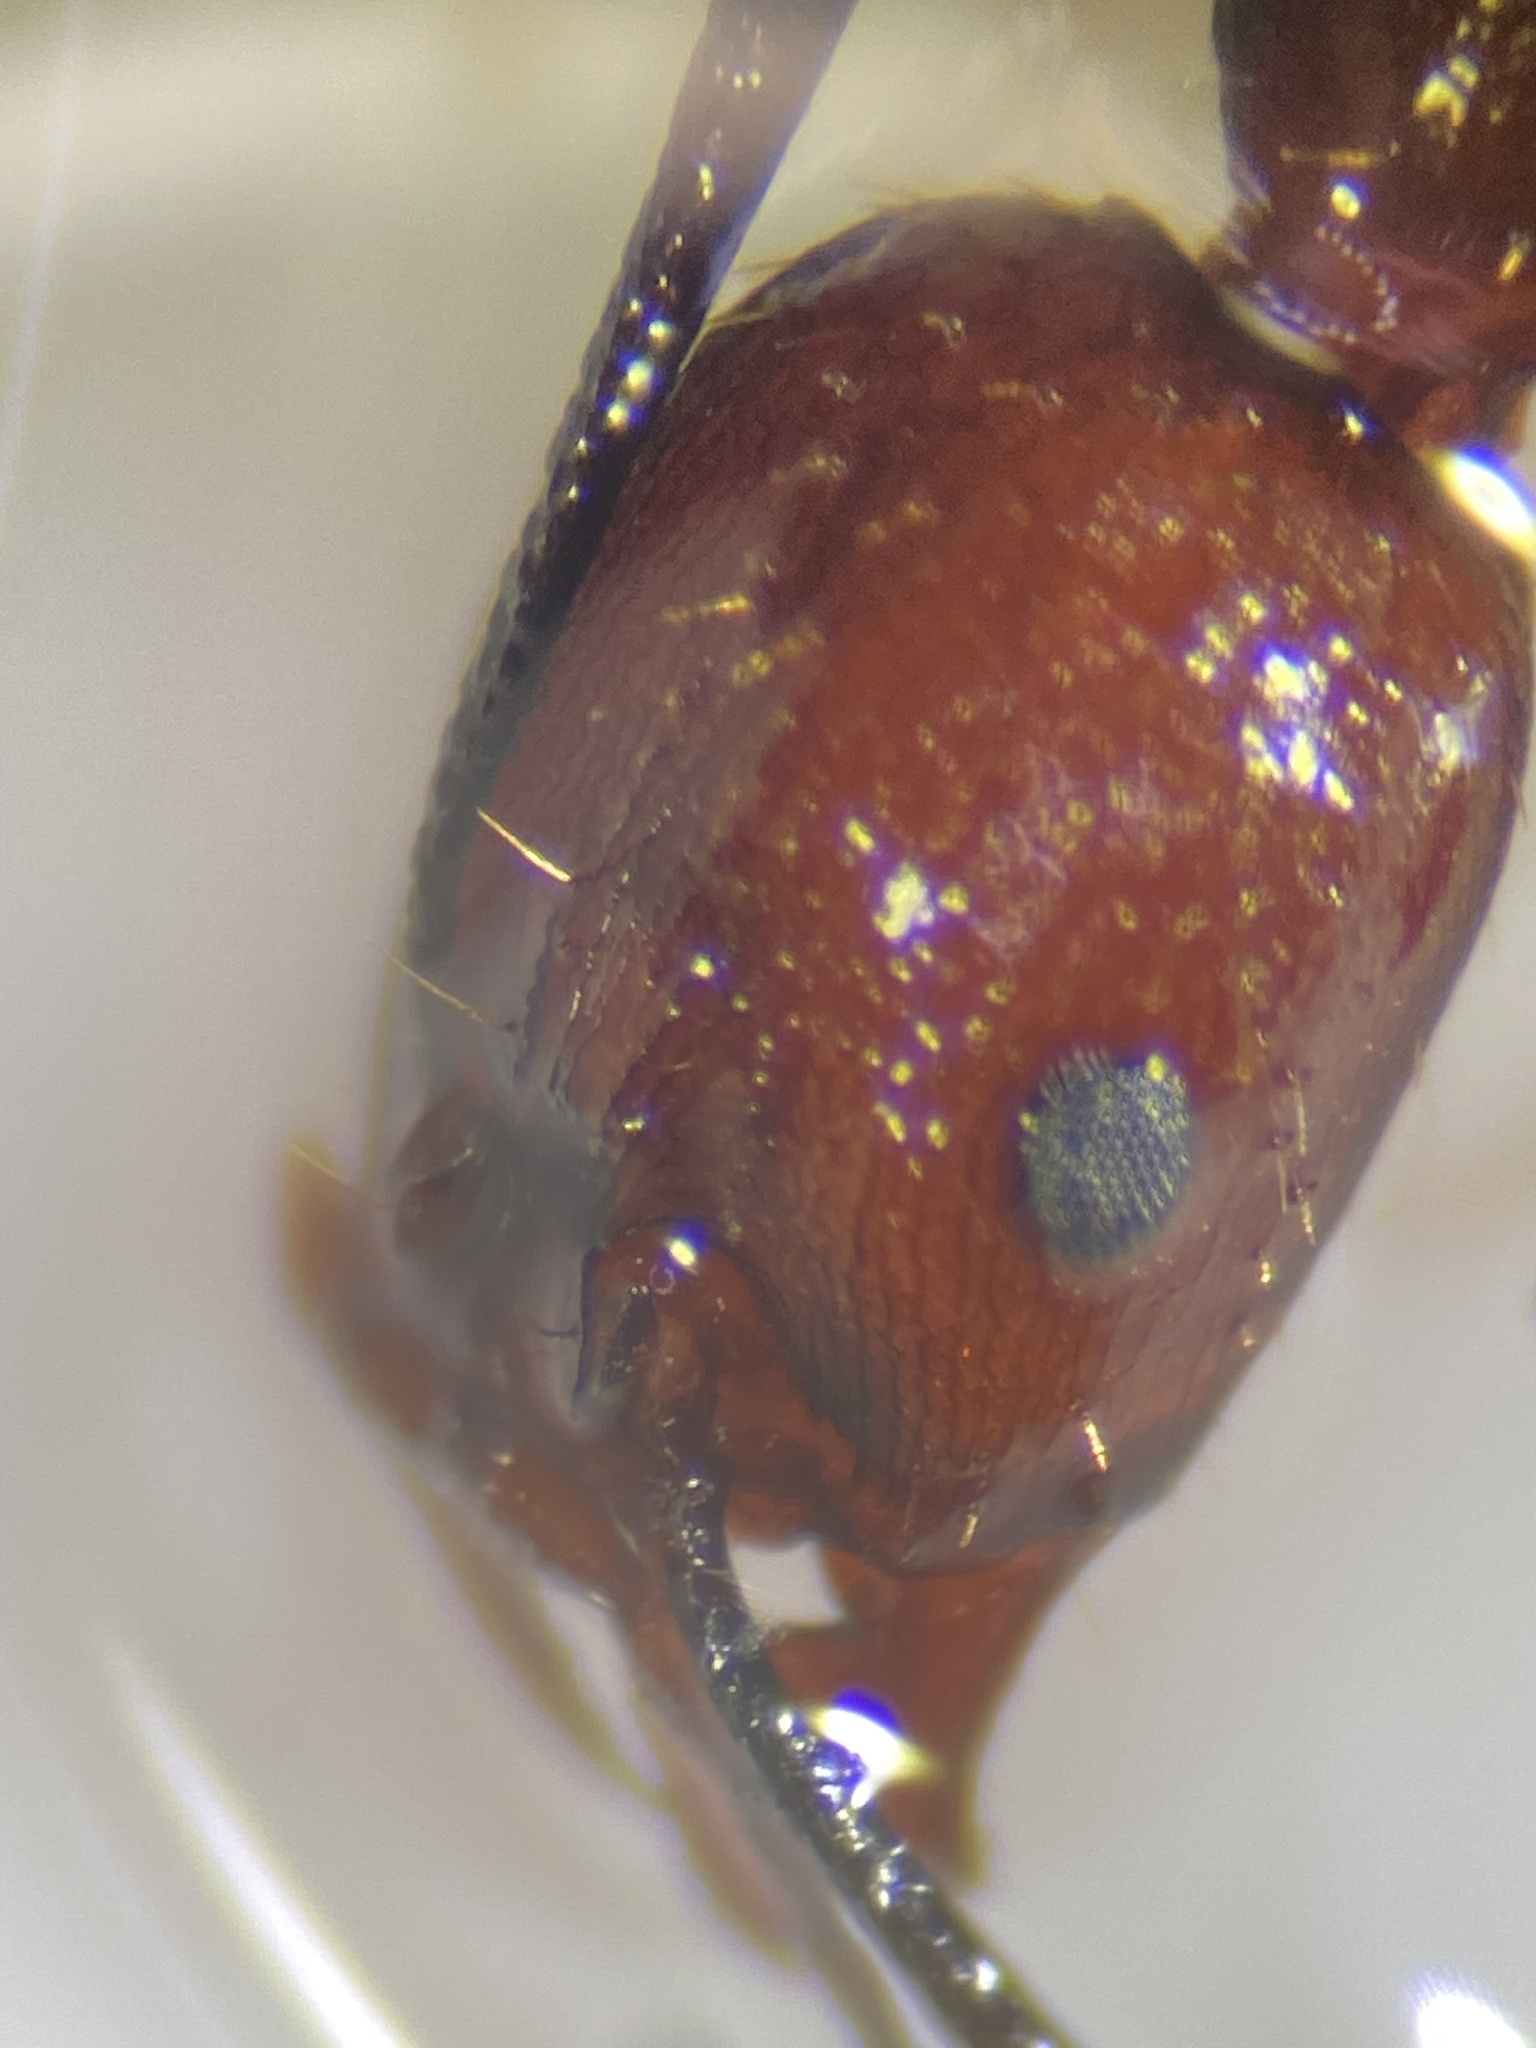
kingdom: Animalia
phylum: Arthropoda
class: Insecta
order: Hymenoptera
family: Formicidae
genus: Aphaenogaster
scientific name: Aphaenogaster lamellidens
